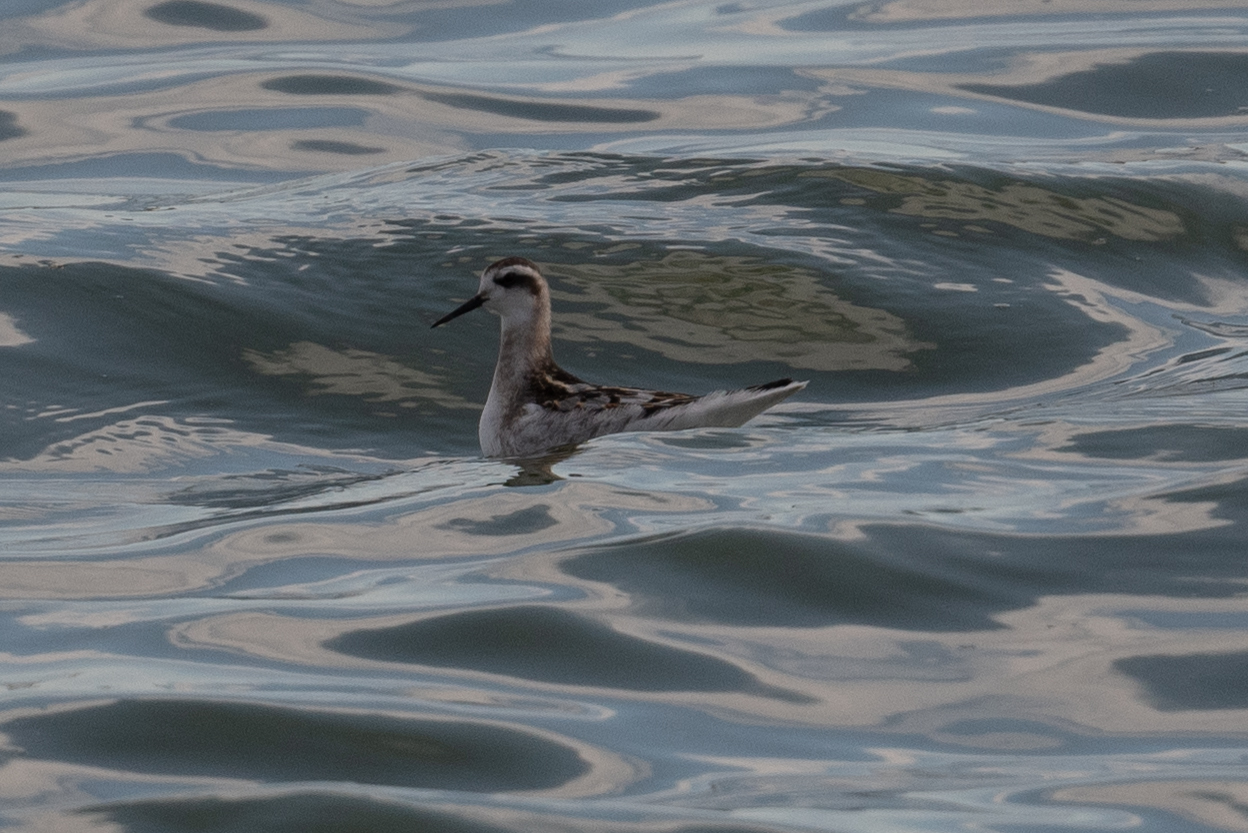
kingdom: Animalia
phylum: Chordata
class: Aves
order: Charadriiformes
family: Scolopacidae
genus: Phalaropus
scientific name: Phalaropus lobatus
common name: Red-necked phalarope
